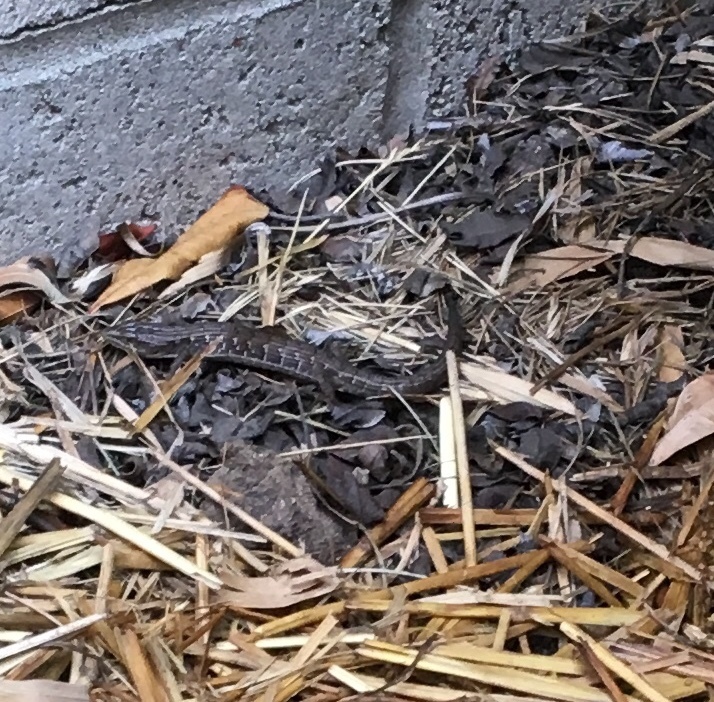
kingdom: Animalia
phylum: Chordata
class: Squamata
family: Anguidae
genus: Elgaria
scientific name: Elgaria multicarinata
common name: Southern alligator lizard
